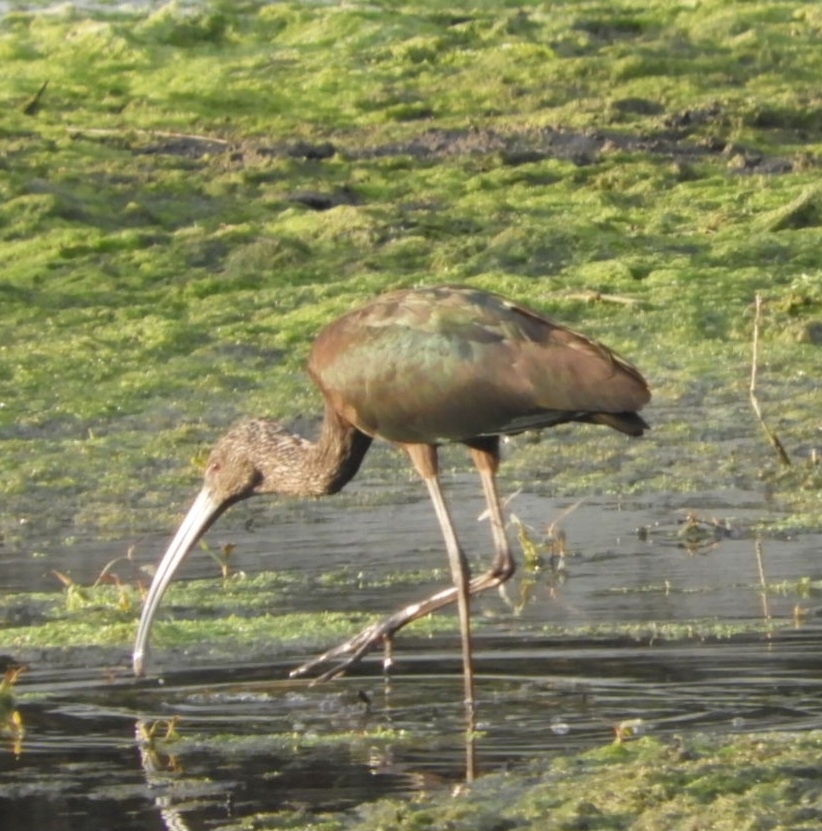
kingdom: Animalia
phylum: Chordata
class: Aves
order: Pelecaniformes
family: Threskiornithidae
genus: Plegadis
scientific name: Plegadis chihi
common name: White-faced ibis
